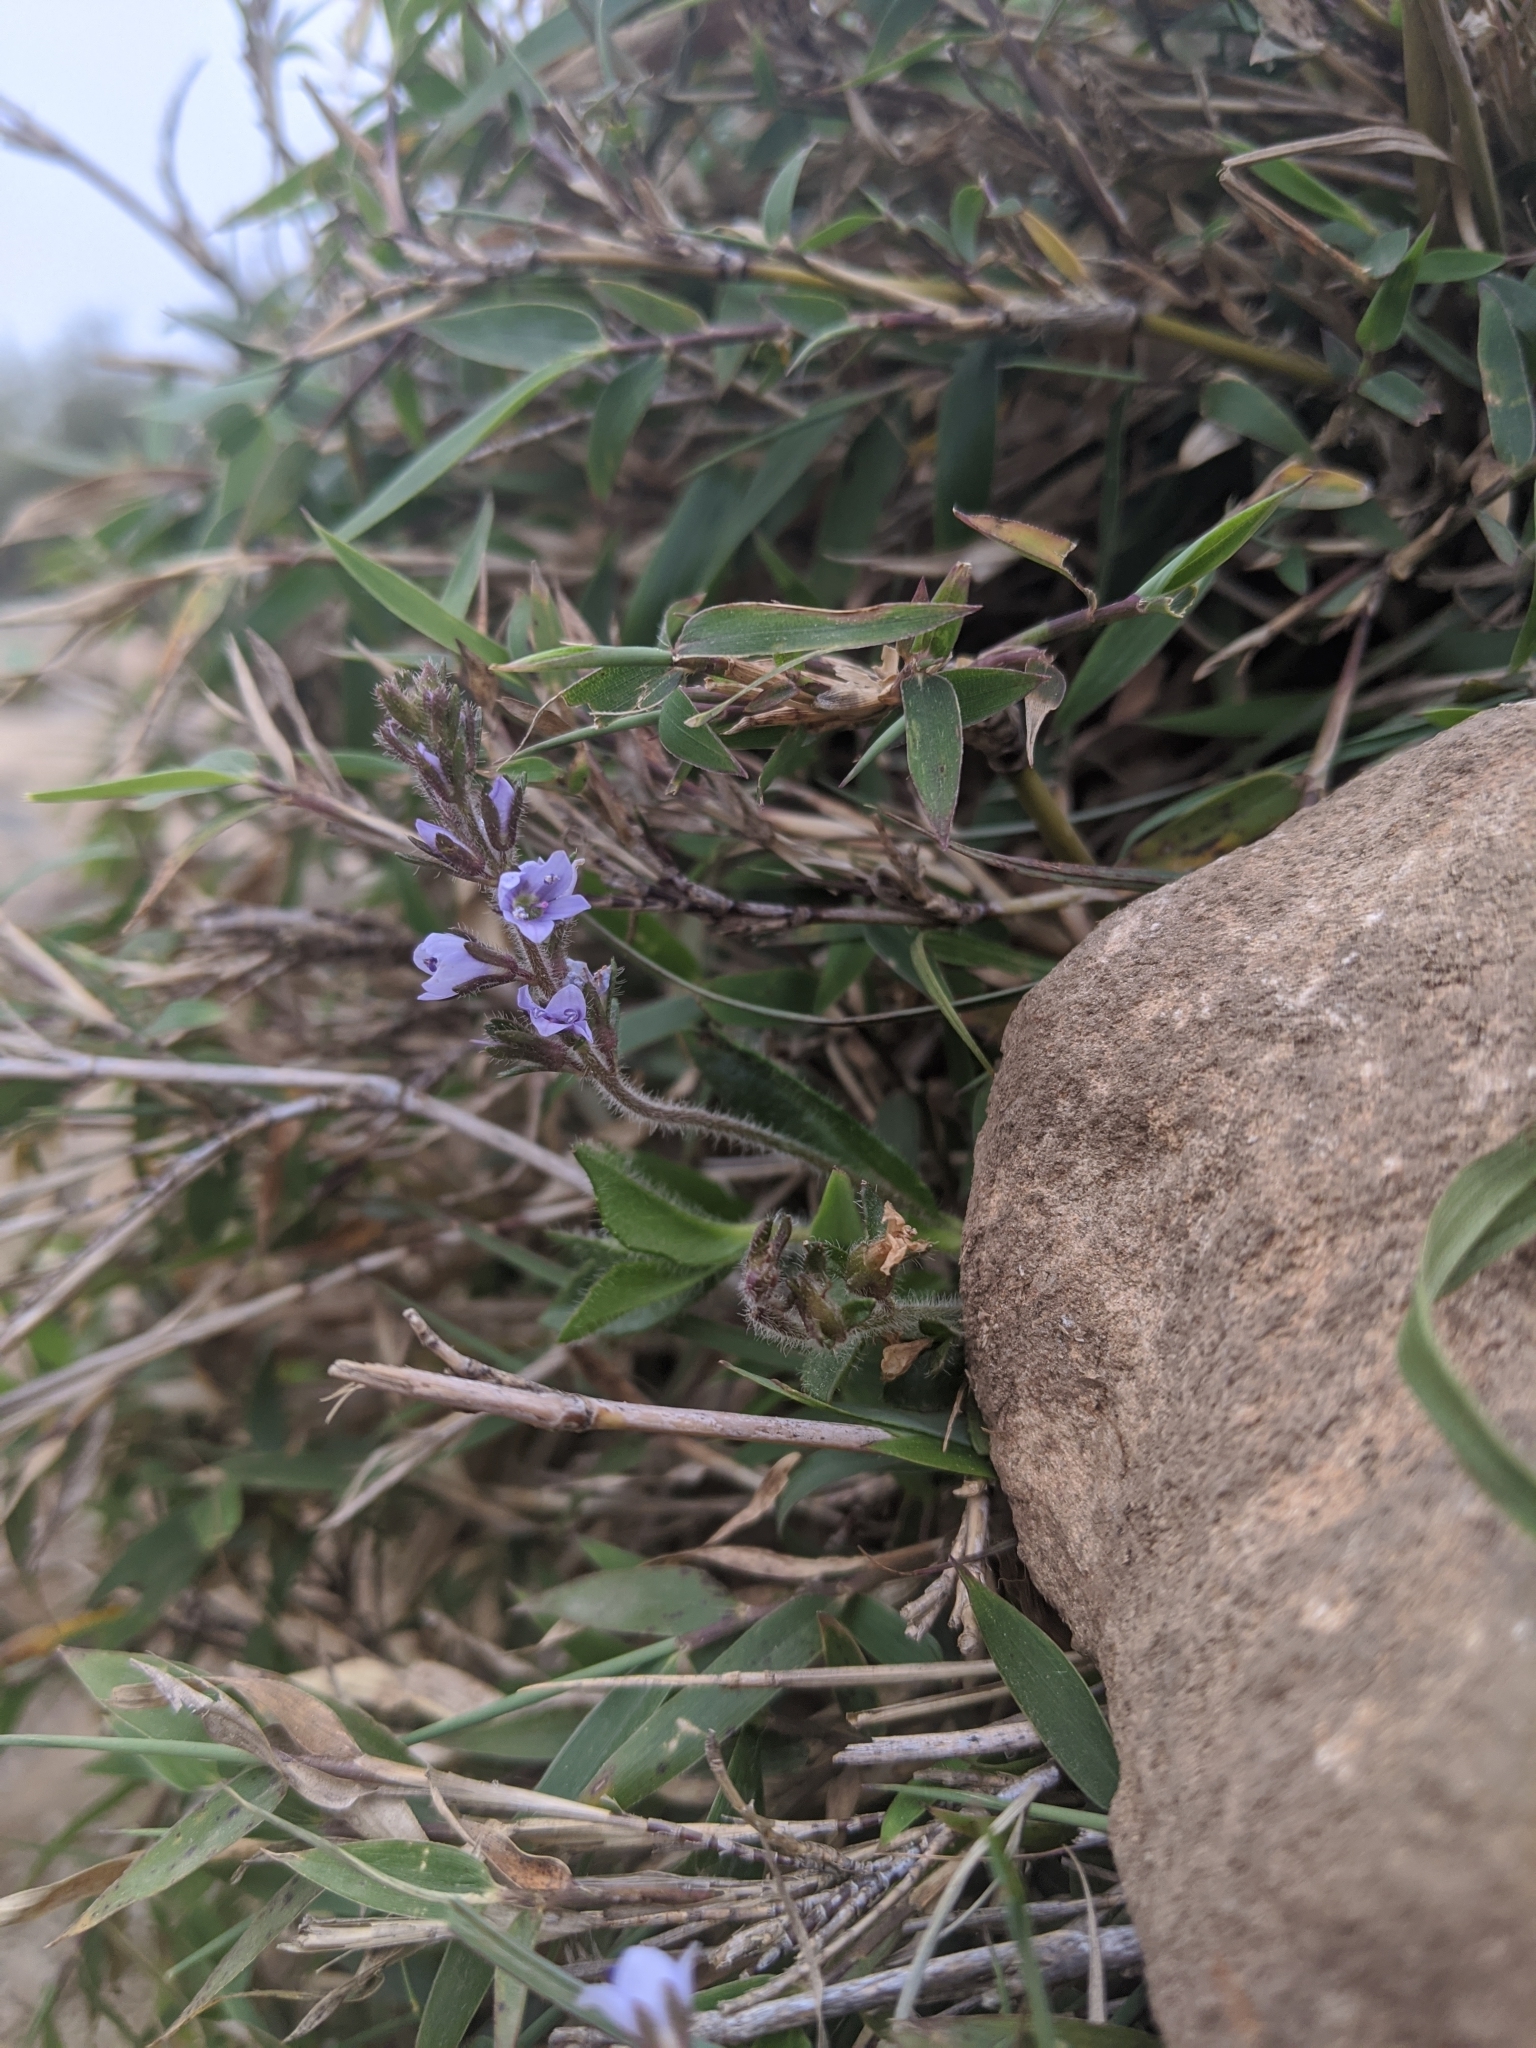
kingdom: Plantae
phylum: Tracheophyta
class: Magnoliopsida
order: Lamiales
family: Plantaginaceae
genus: Veronica
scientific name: Veronica morrisonicola
